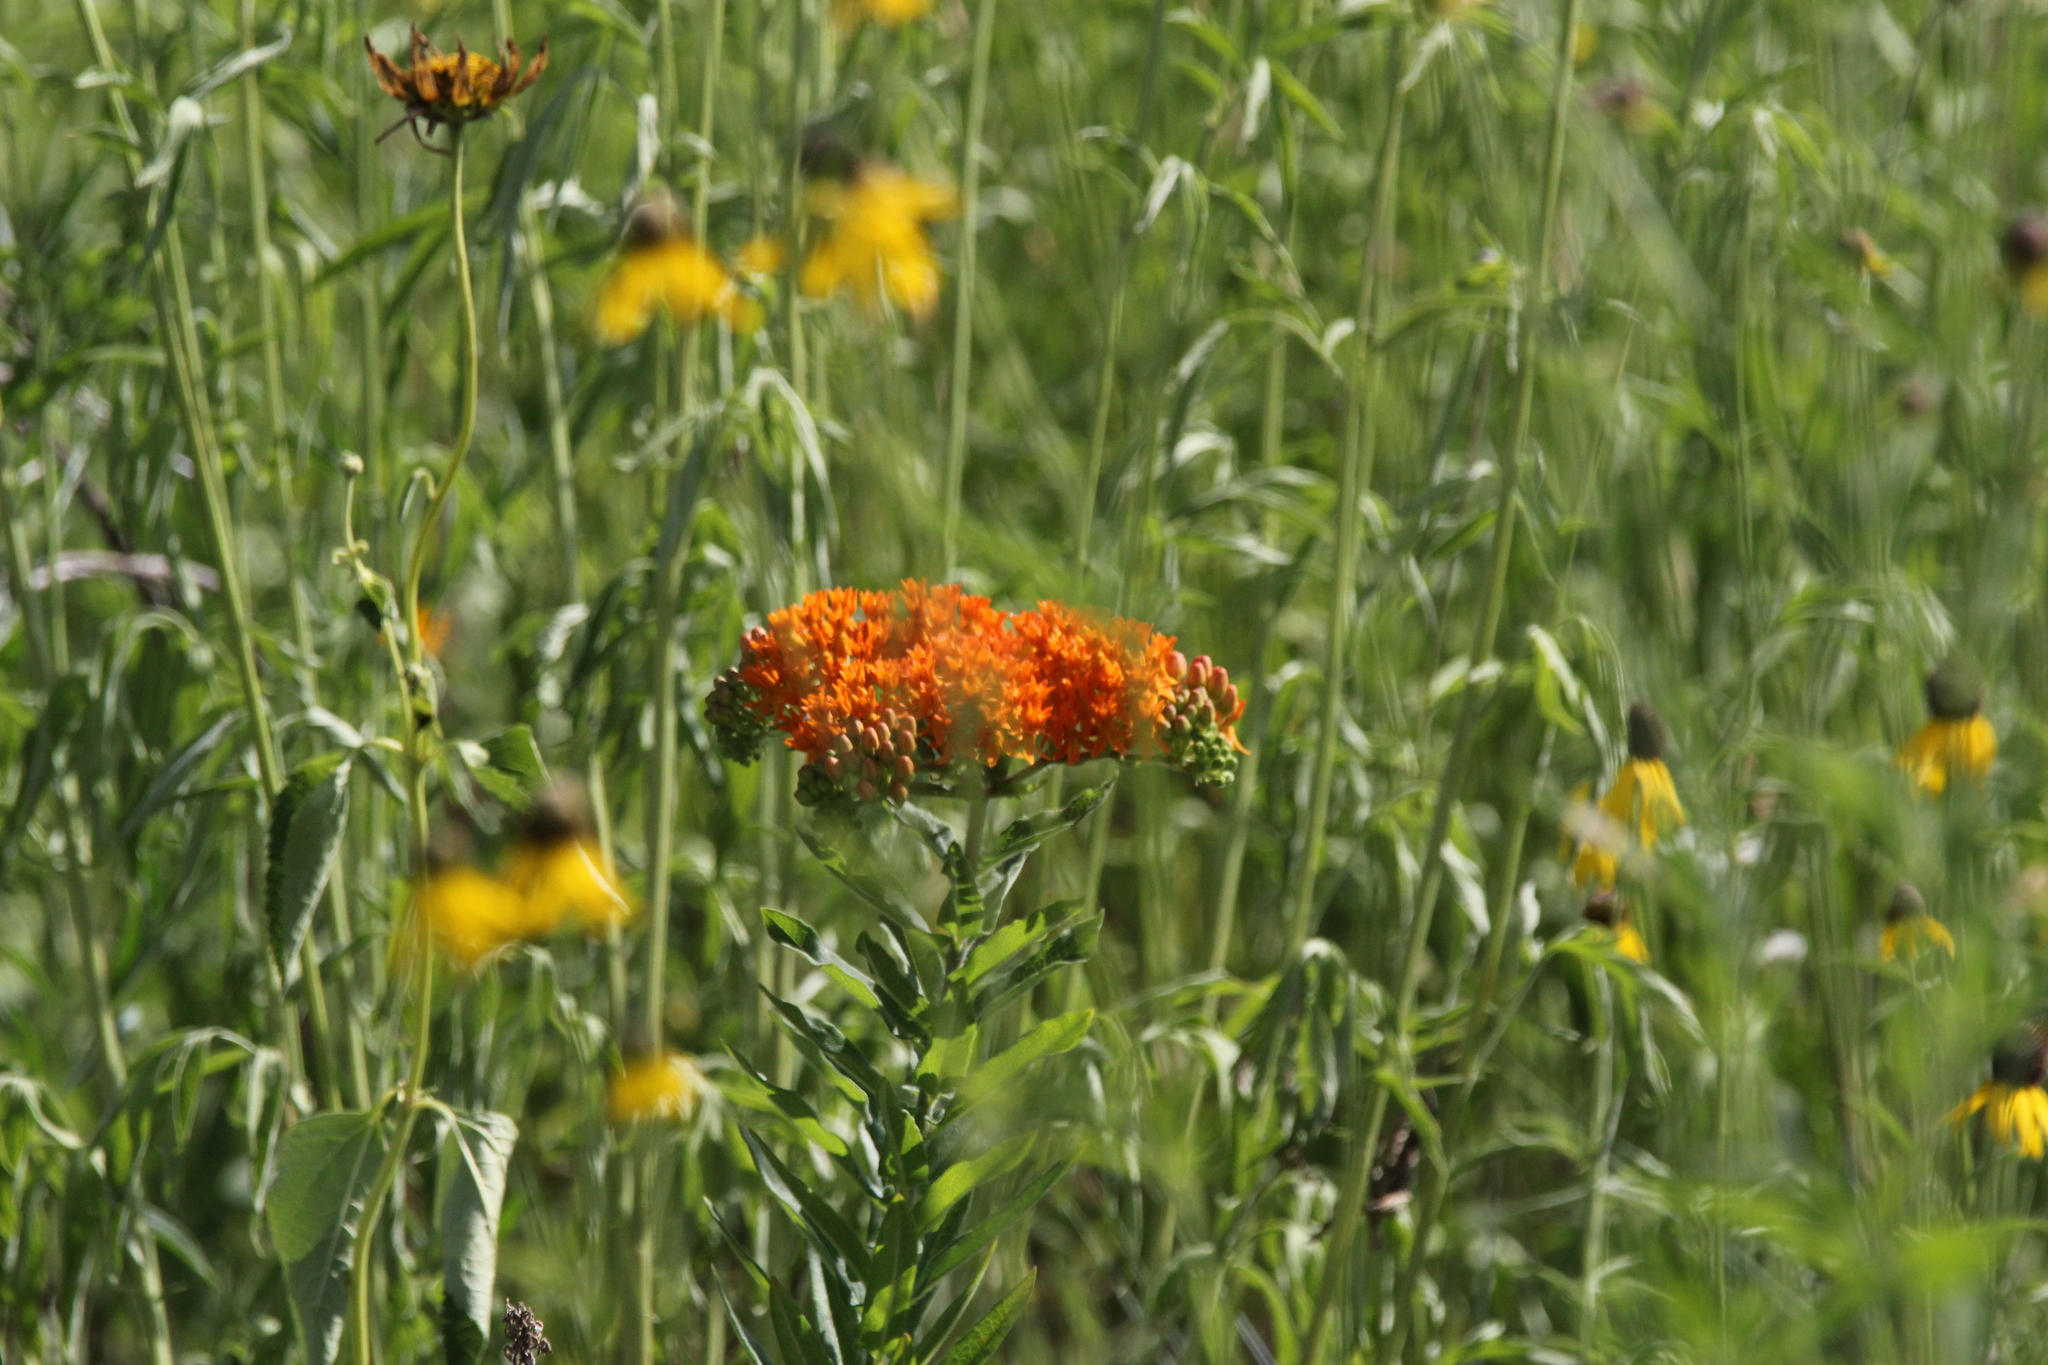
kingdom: Plantae
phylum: Tracheophyta
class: Magnoliopsida
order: Gentianales
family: Apocynaceae
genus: Asclepias
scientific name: Asclepias tuberosa
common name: Butterfly milkweed
